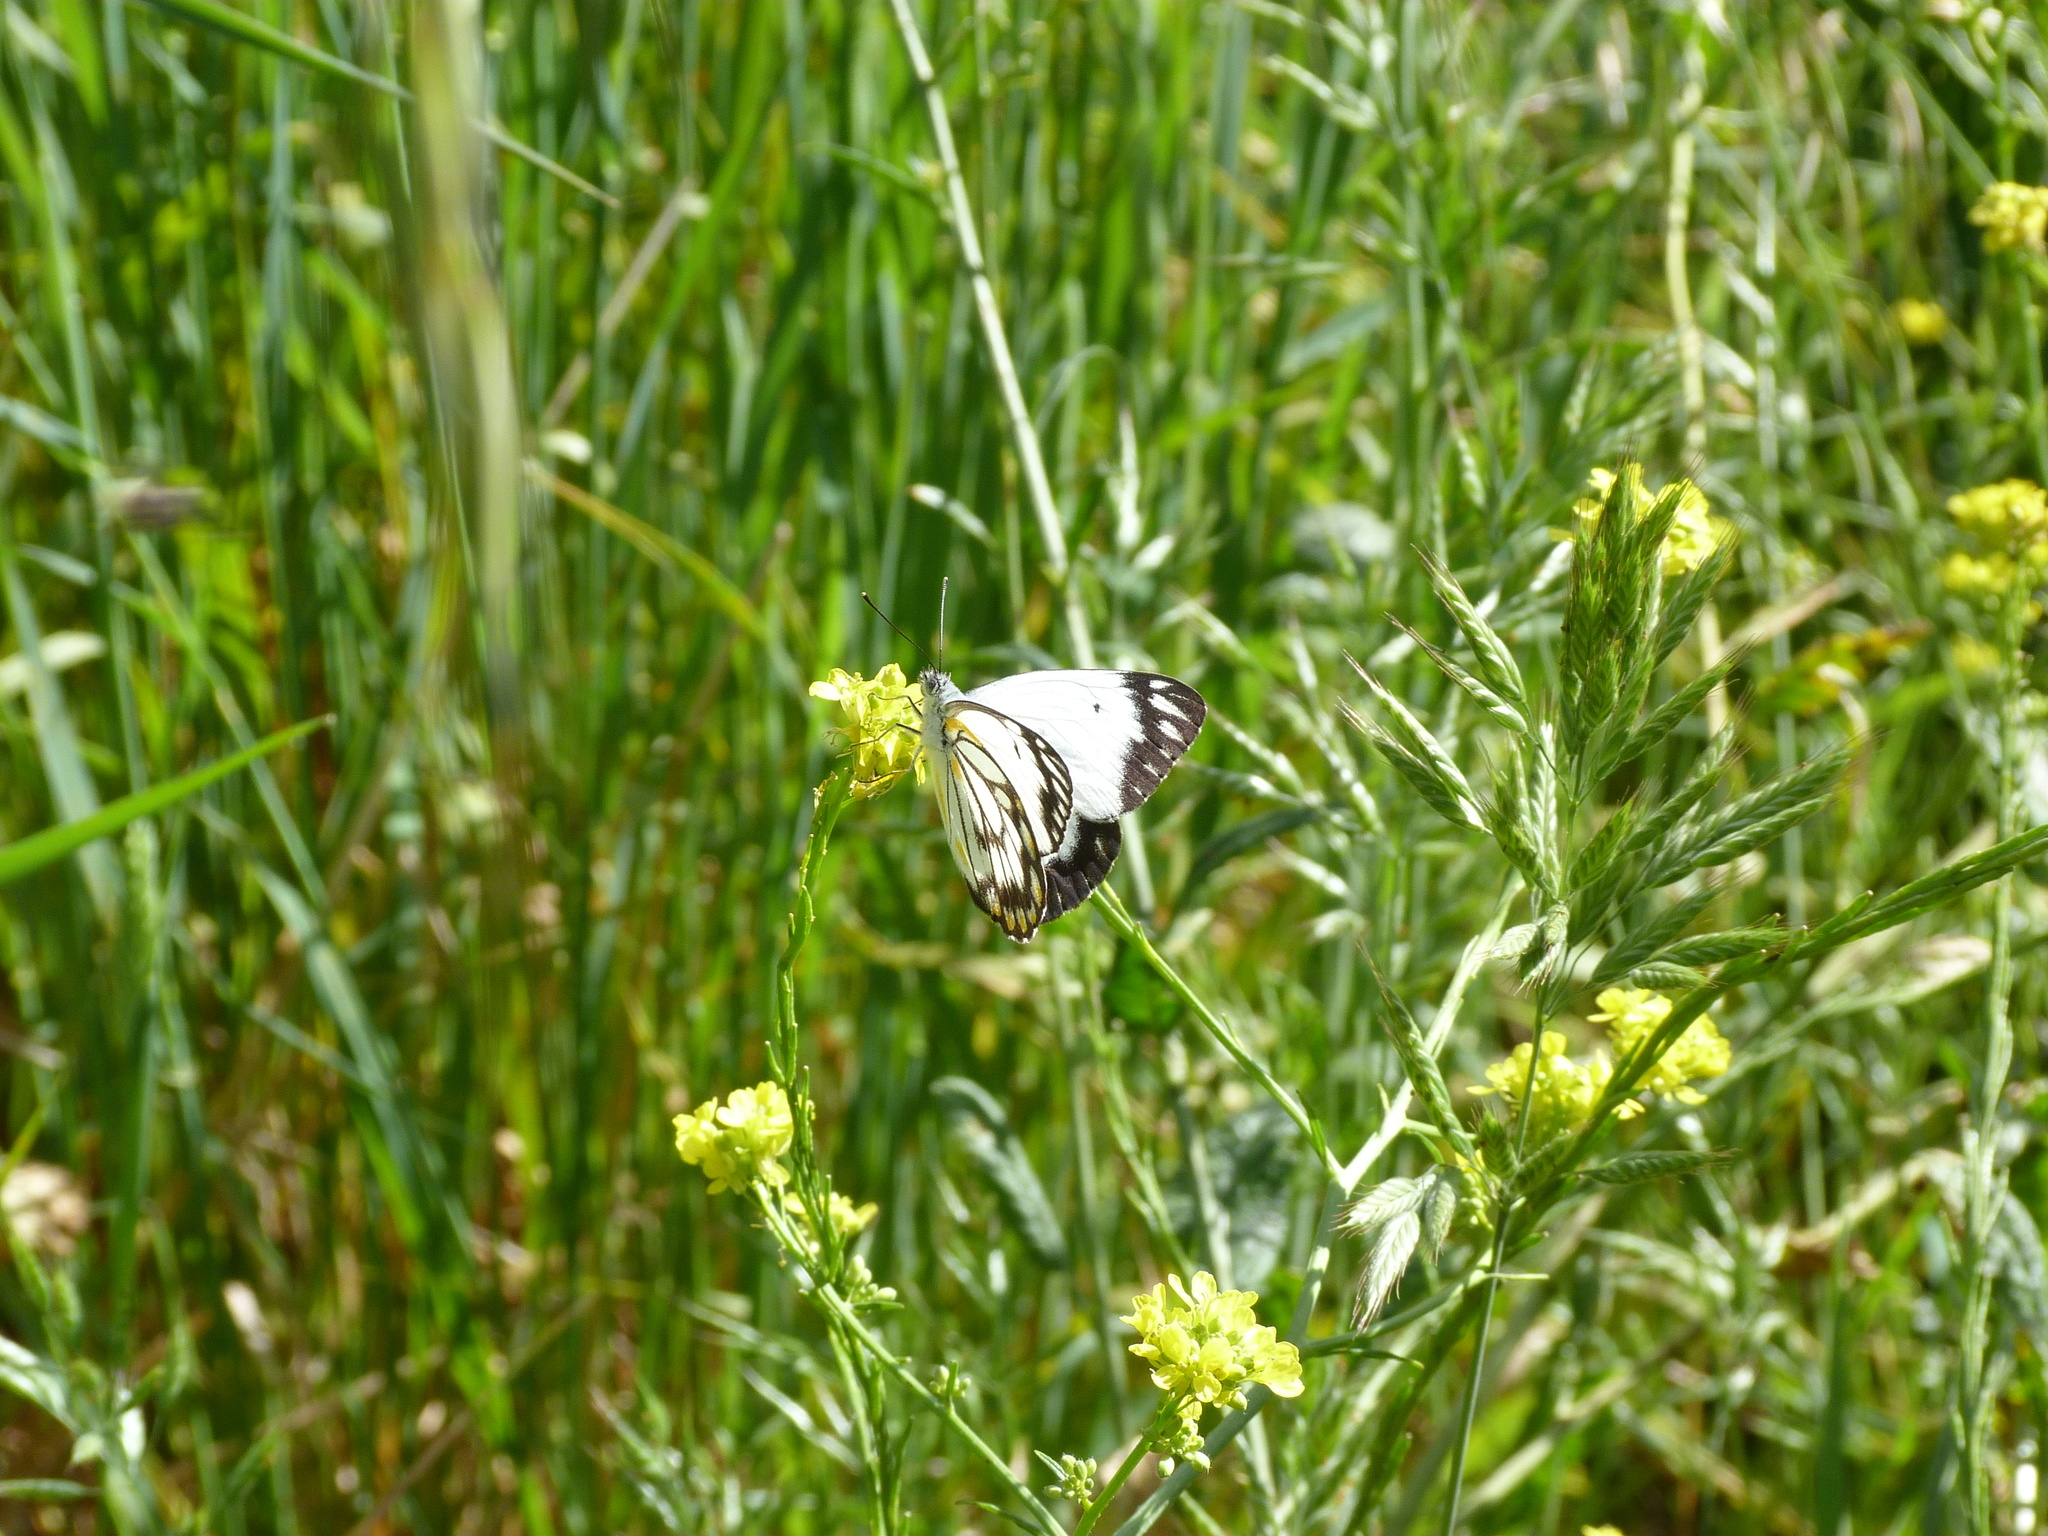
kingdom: Animalia
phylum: Arthropoda
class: Insecta
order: Lepidoptera
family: Pieridae
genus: Belenois
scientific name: Belenois java
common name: Caper white
